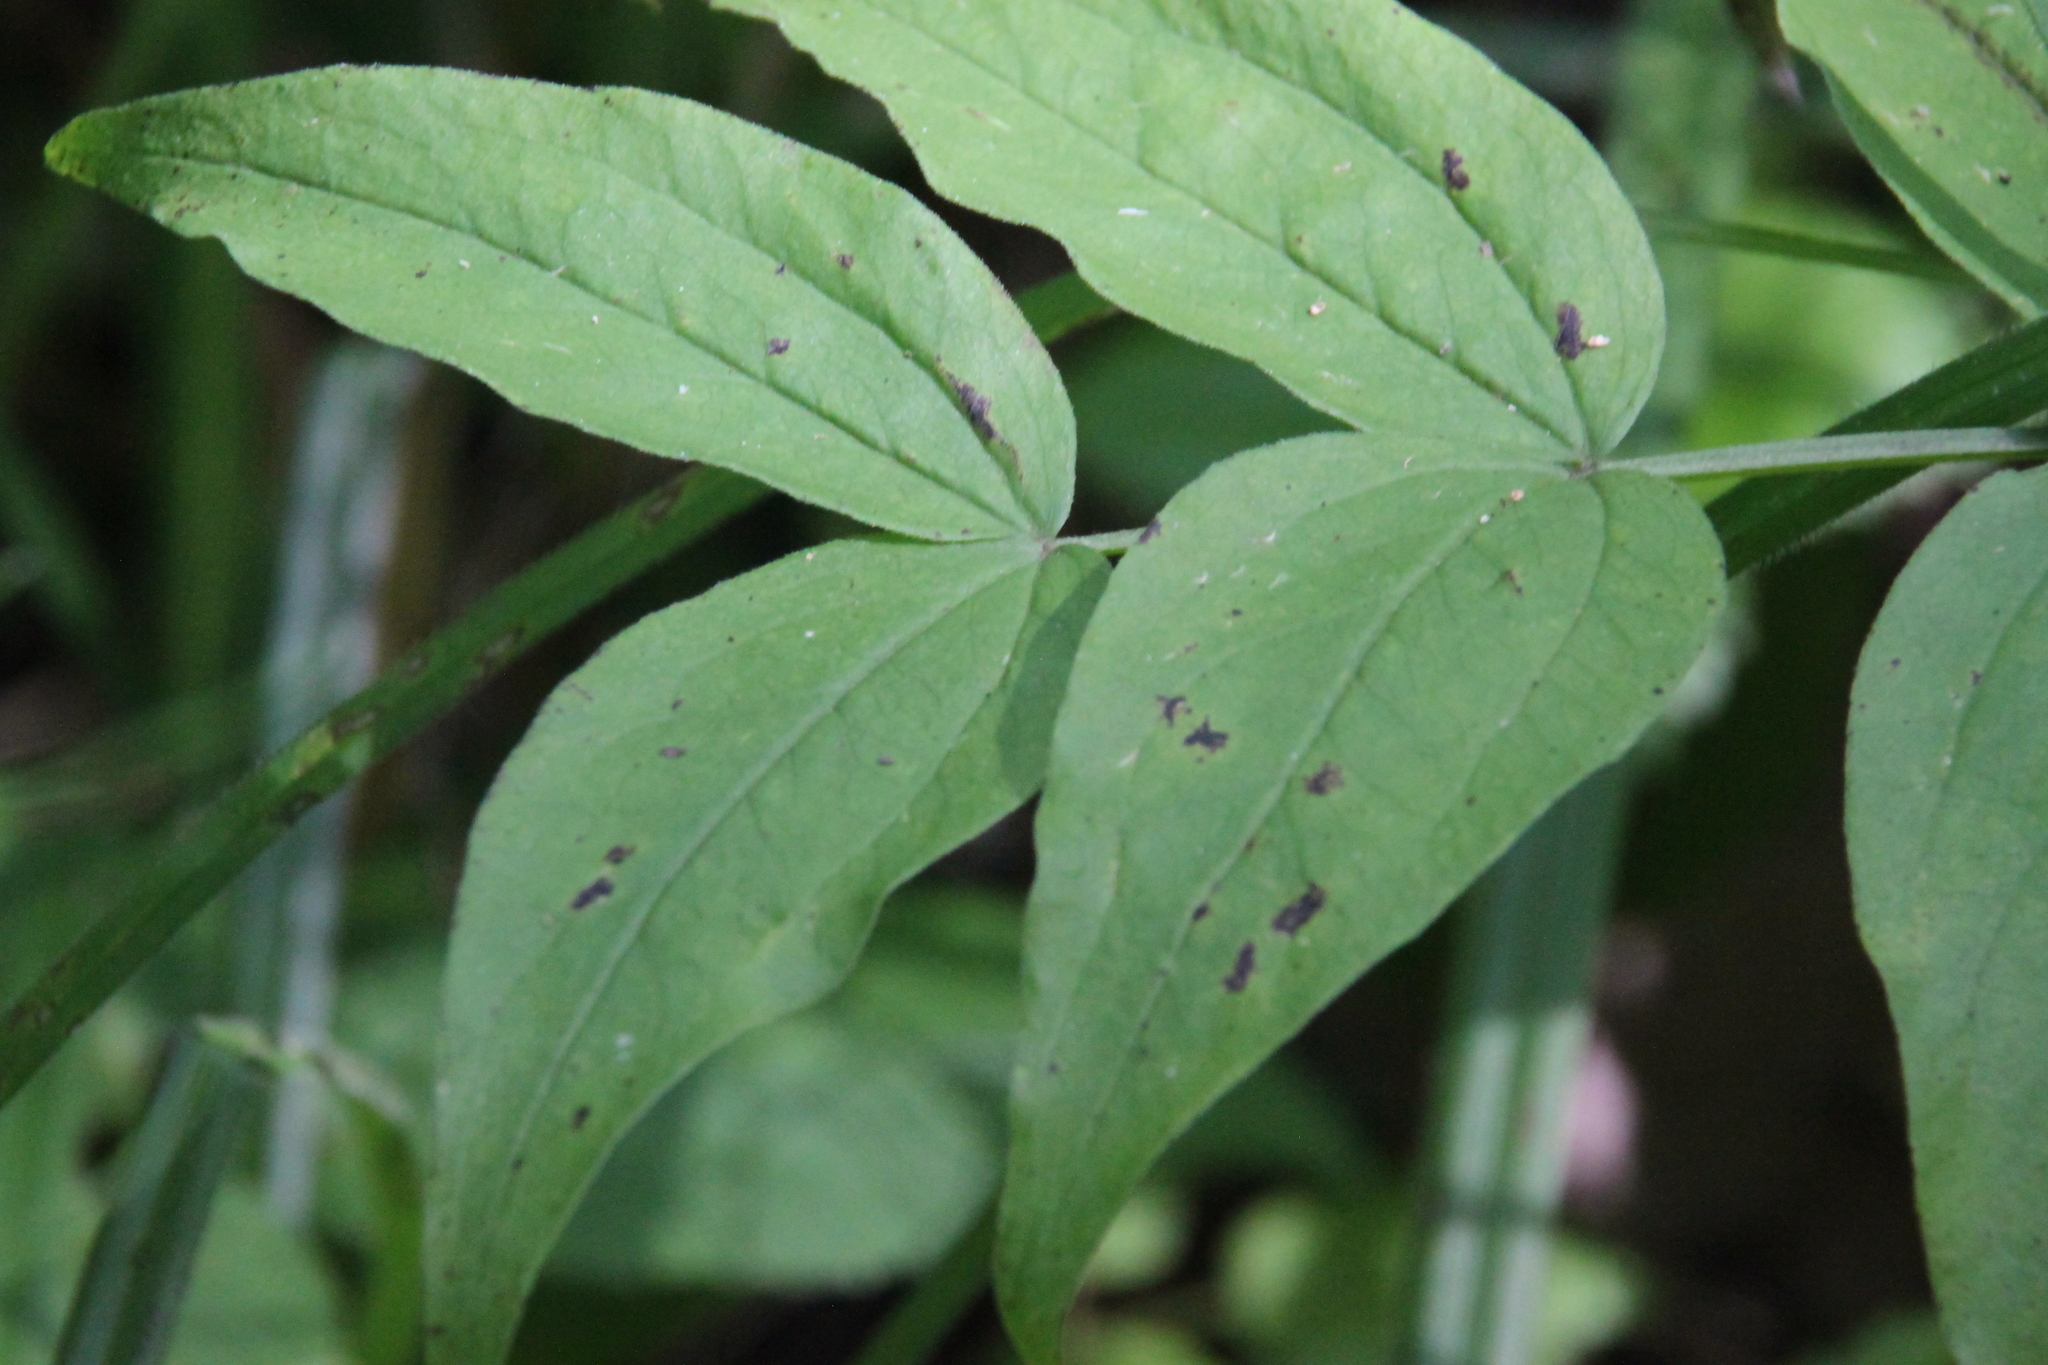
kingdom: Plantae
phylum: Tracheophyta
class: Magnoliopsida
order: Fabales
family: Fabaceae
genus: Lathyrus
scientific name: Lathyrus vernus
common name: Spring pea
